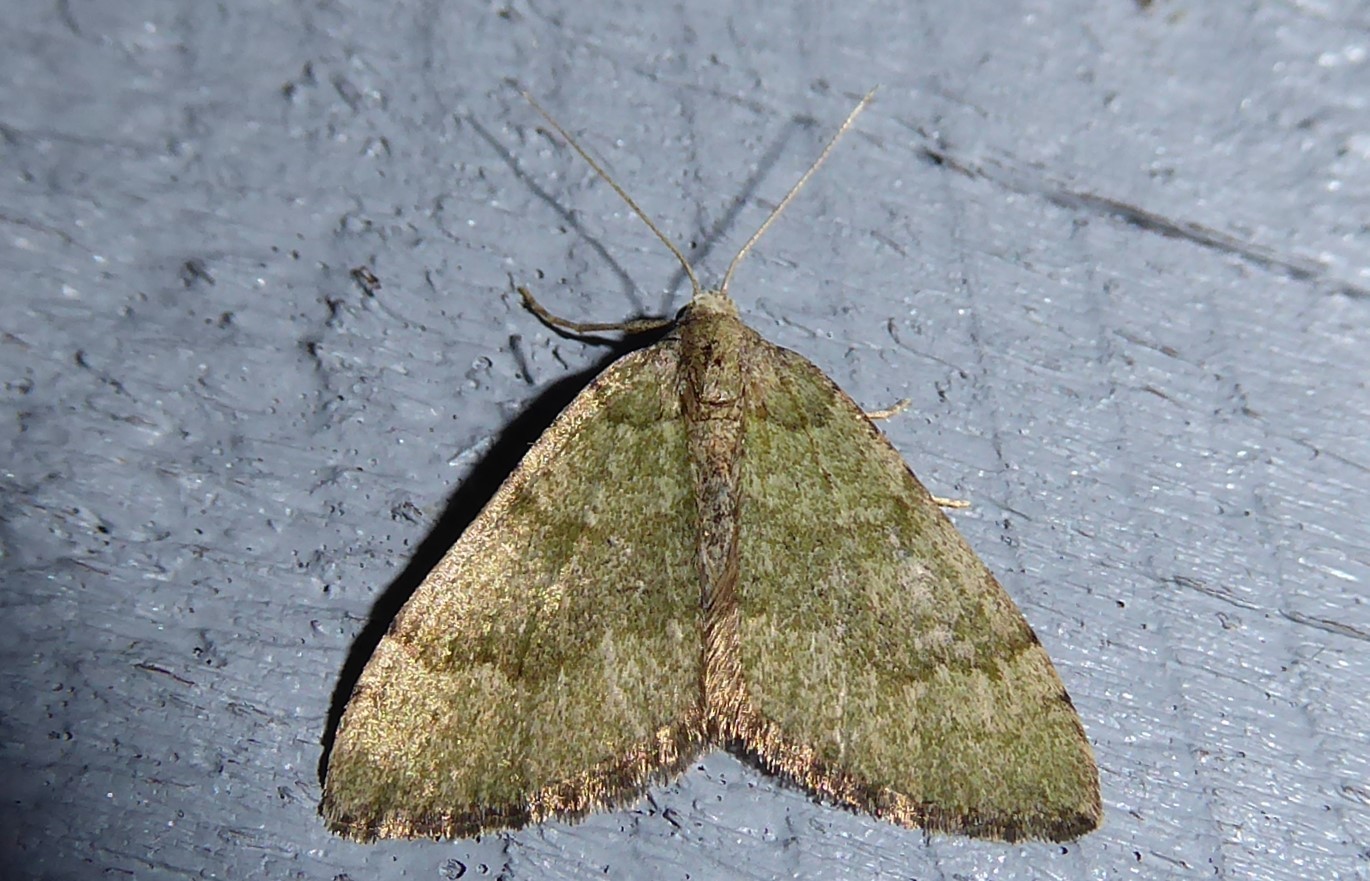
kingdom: Animalia
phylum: Arthropoda
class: Insecta
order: Lepidoptera
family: Geometridae
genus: Epyaxa
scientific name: Epyaxa rosearia
